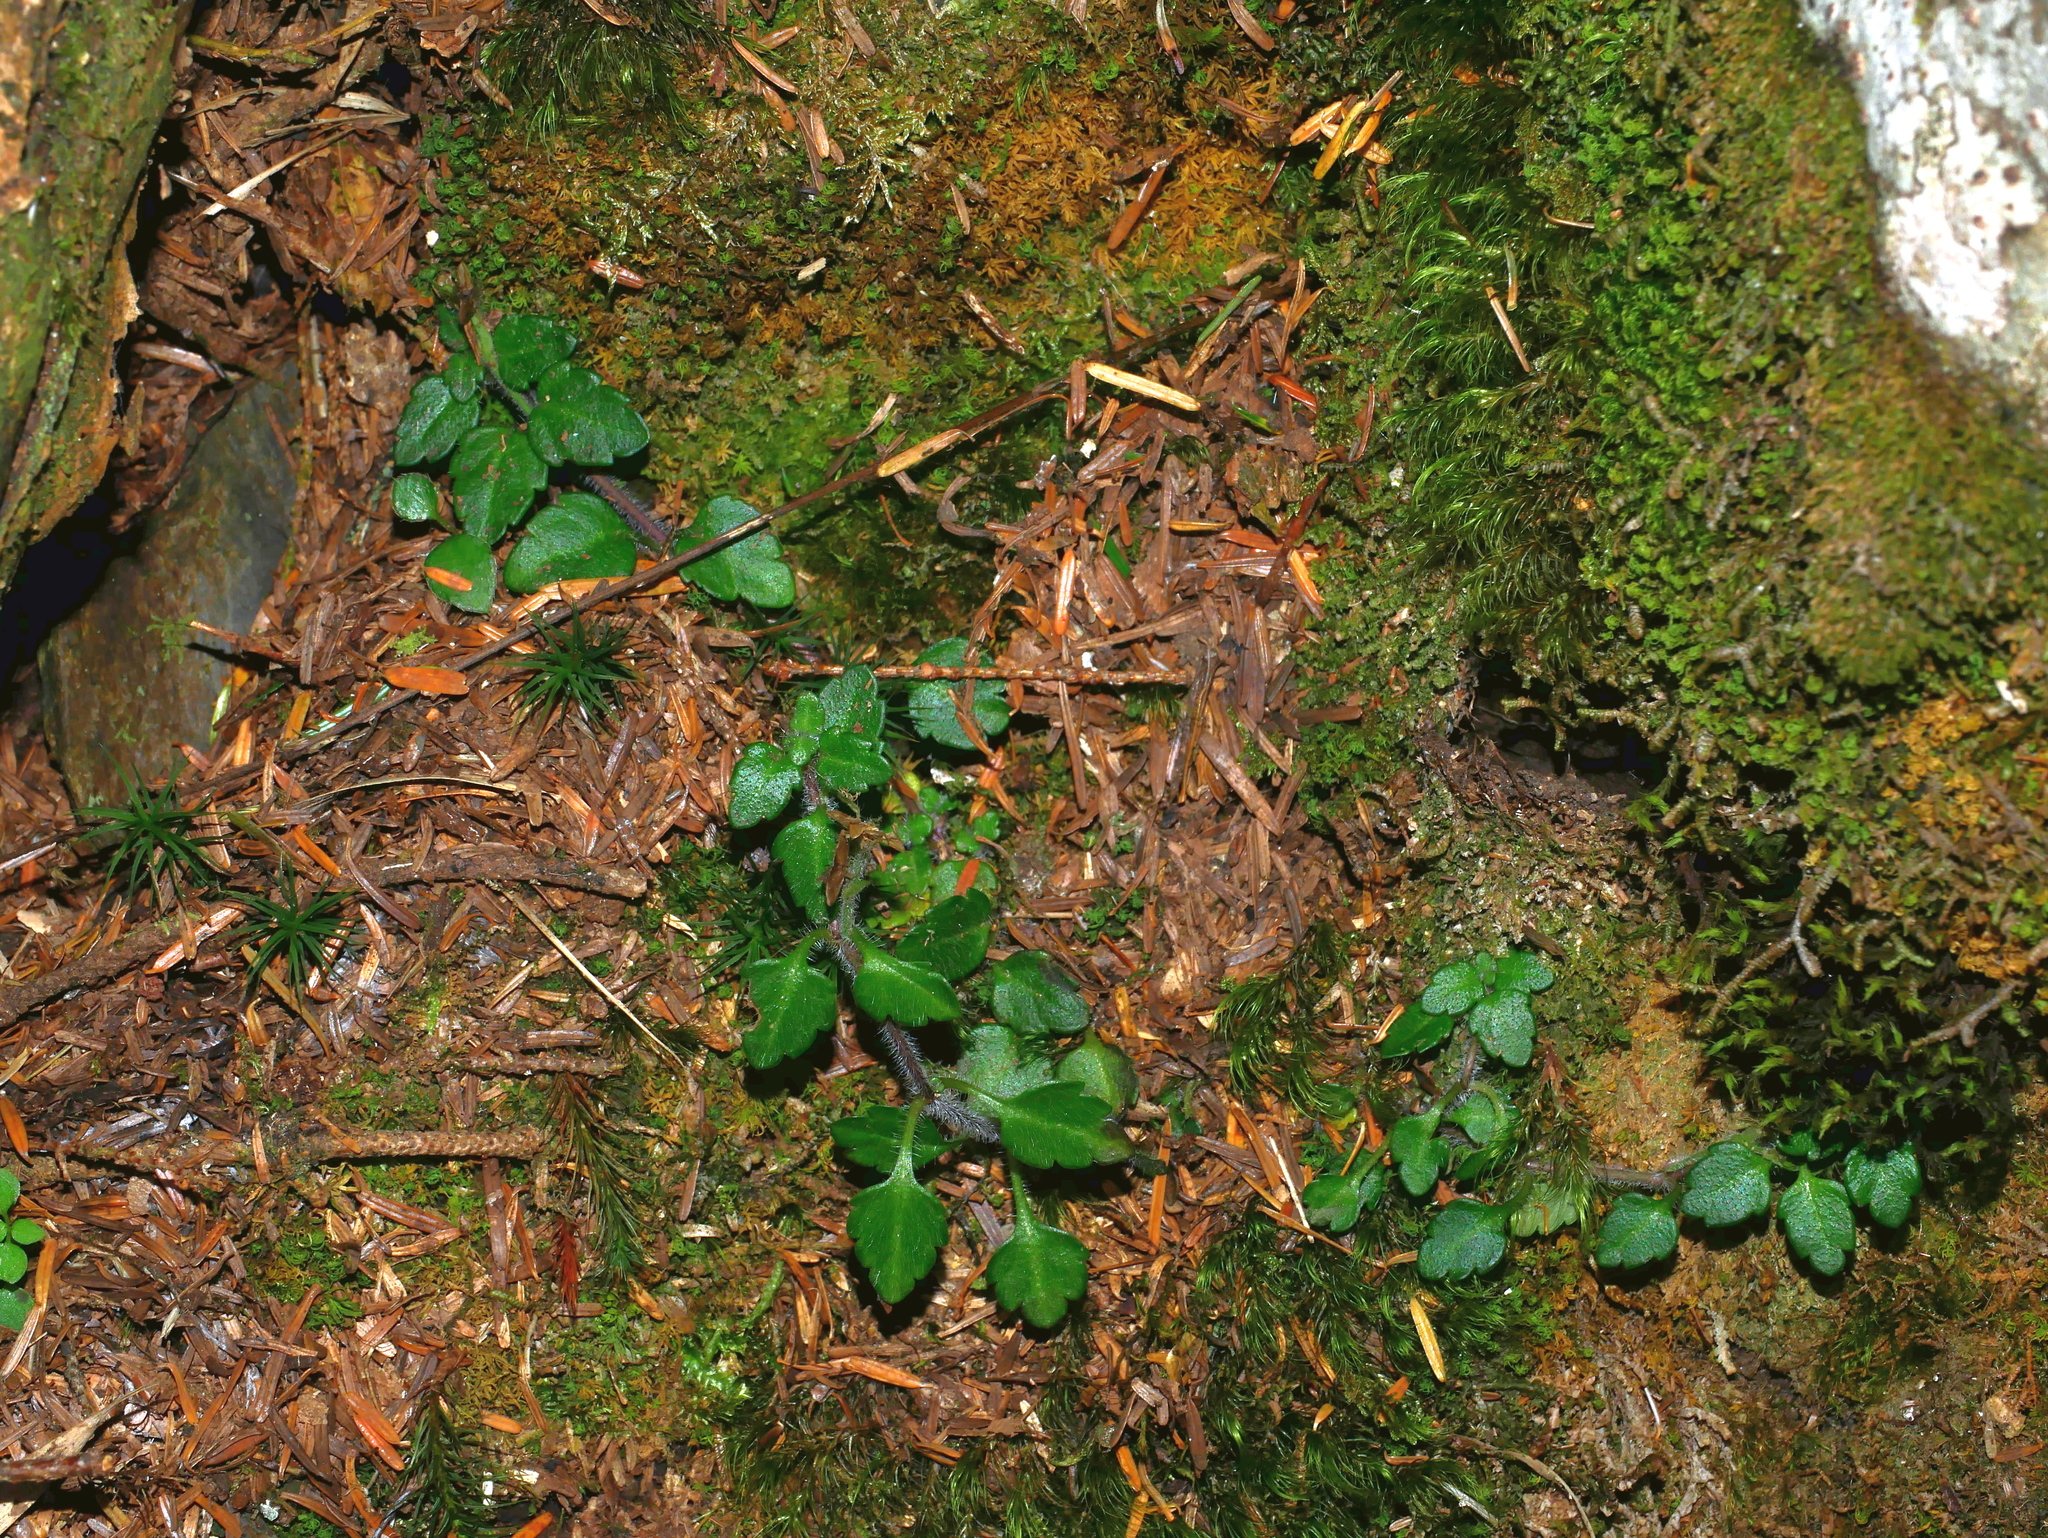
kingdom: Plantae
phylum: Tracheophyta
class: Magnoliopsida
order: Lamiales
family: Plantaginaceae
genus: Veronica
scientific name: Veronica oligosperma
